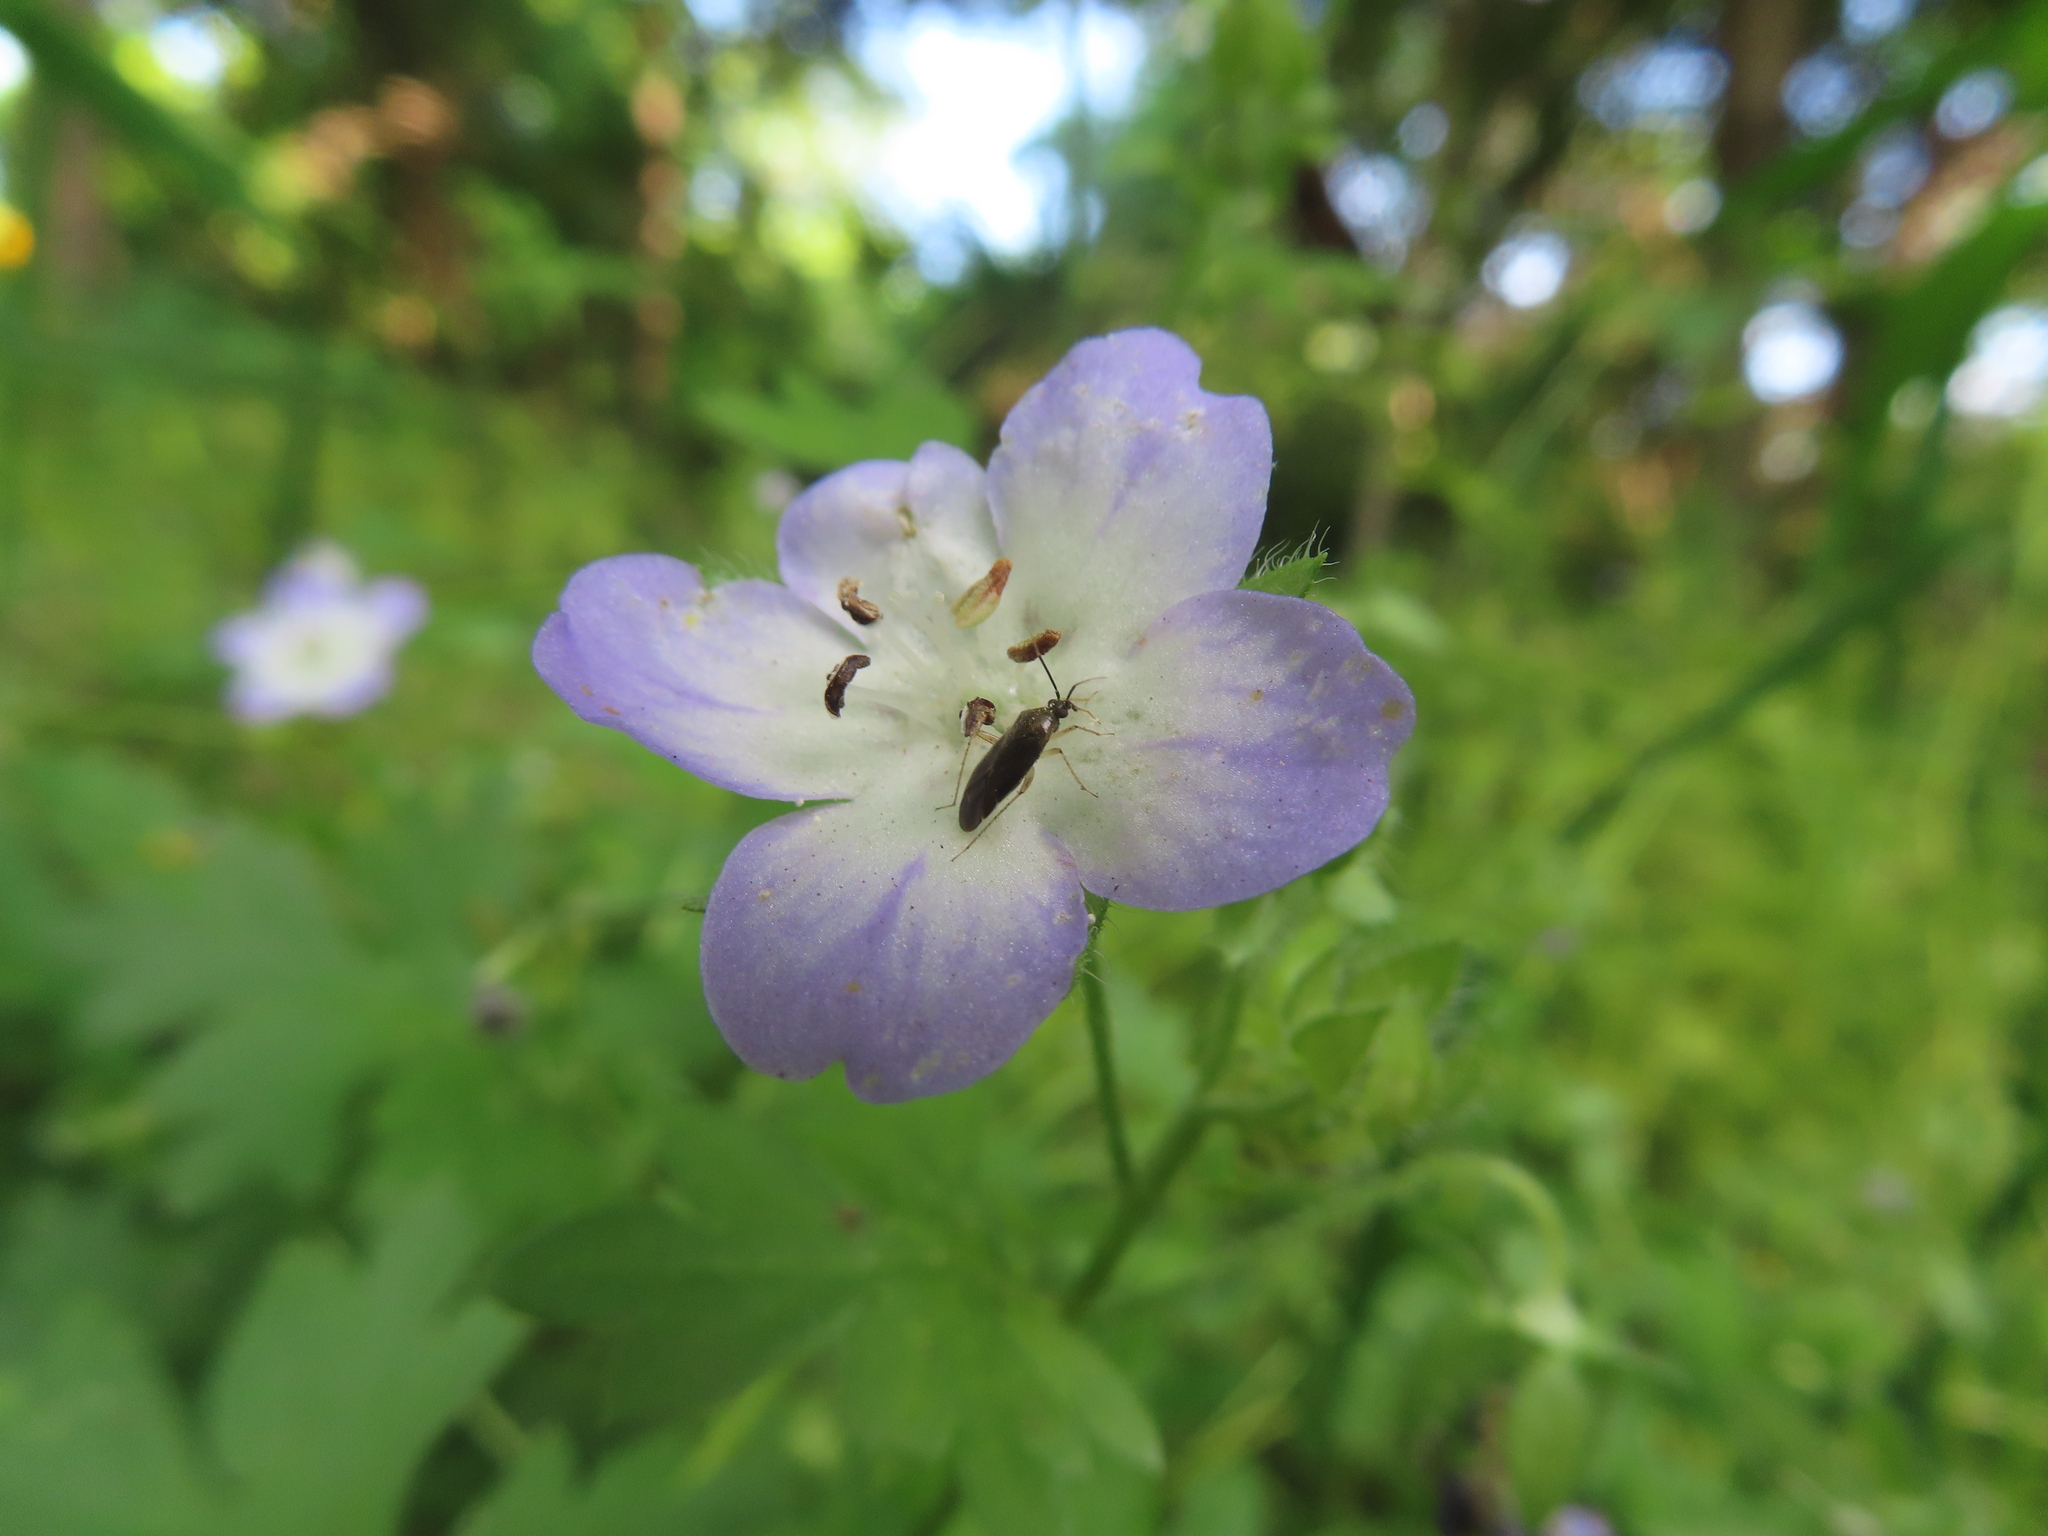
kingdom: Plantae
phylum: Tracheophyta
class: Magnoliopsida
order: Boraginales
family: Hydrophyllaceae
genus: Nemophila
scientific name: Nemophila phacelioides
